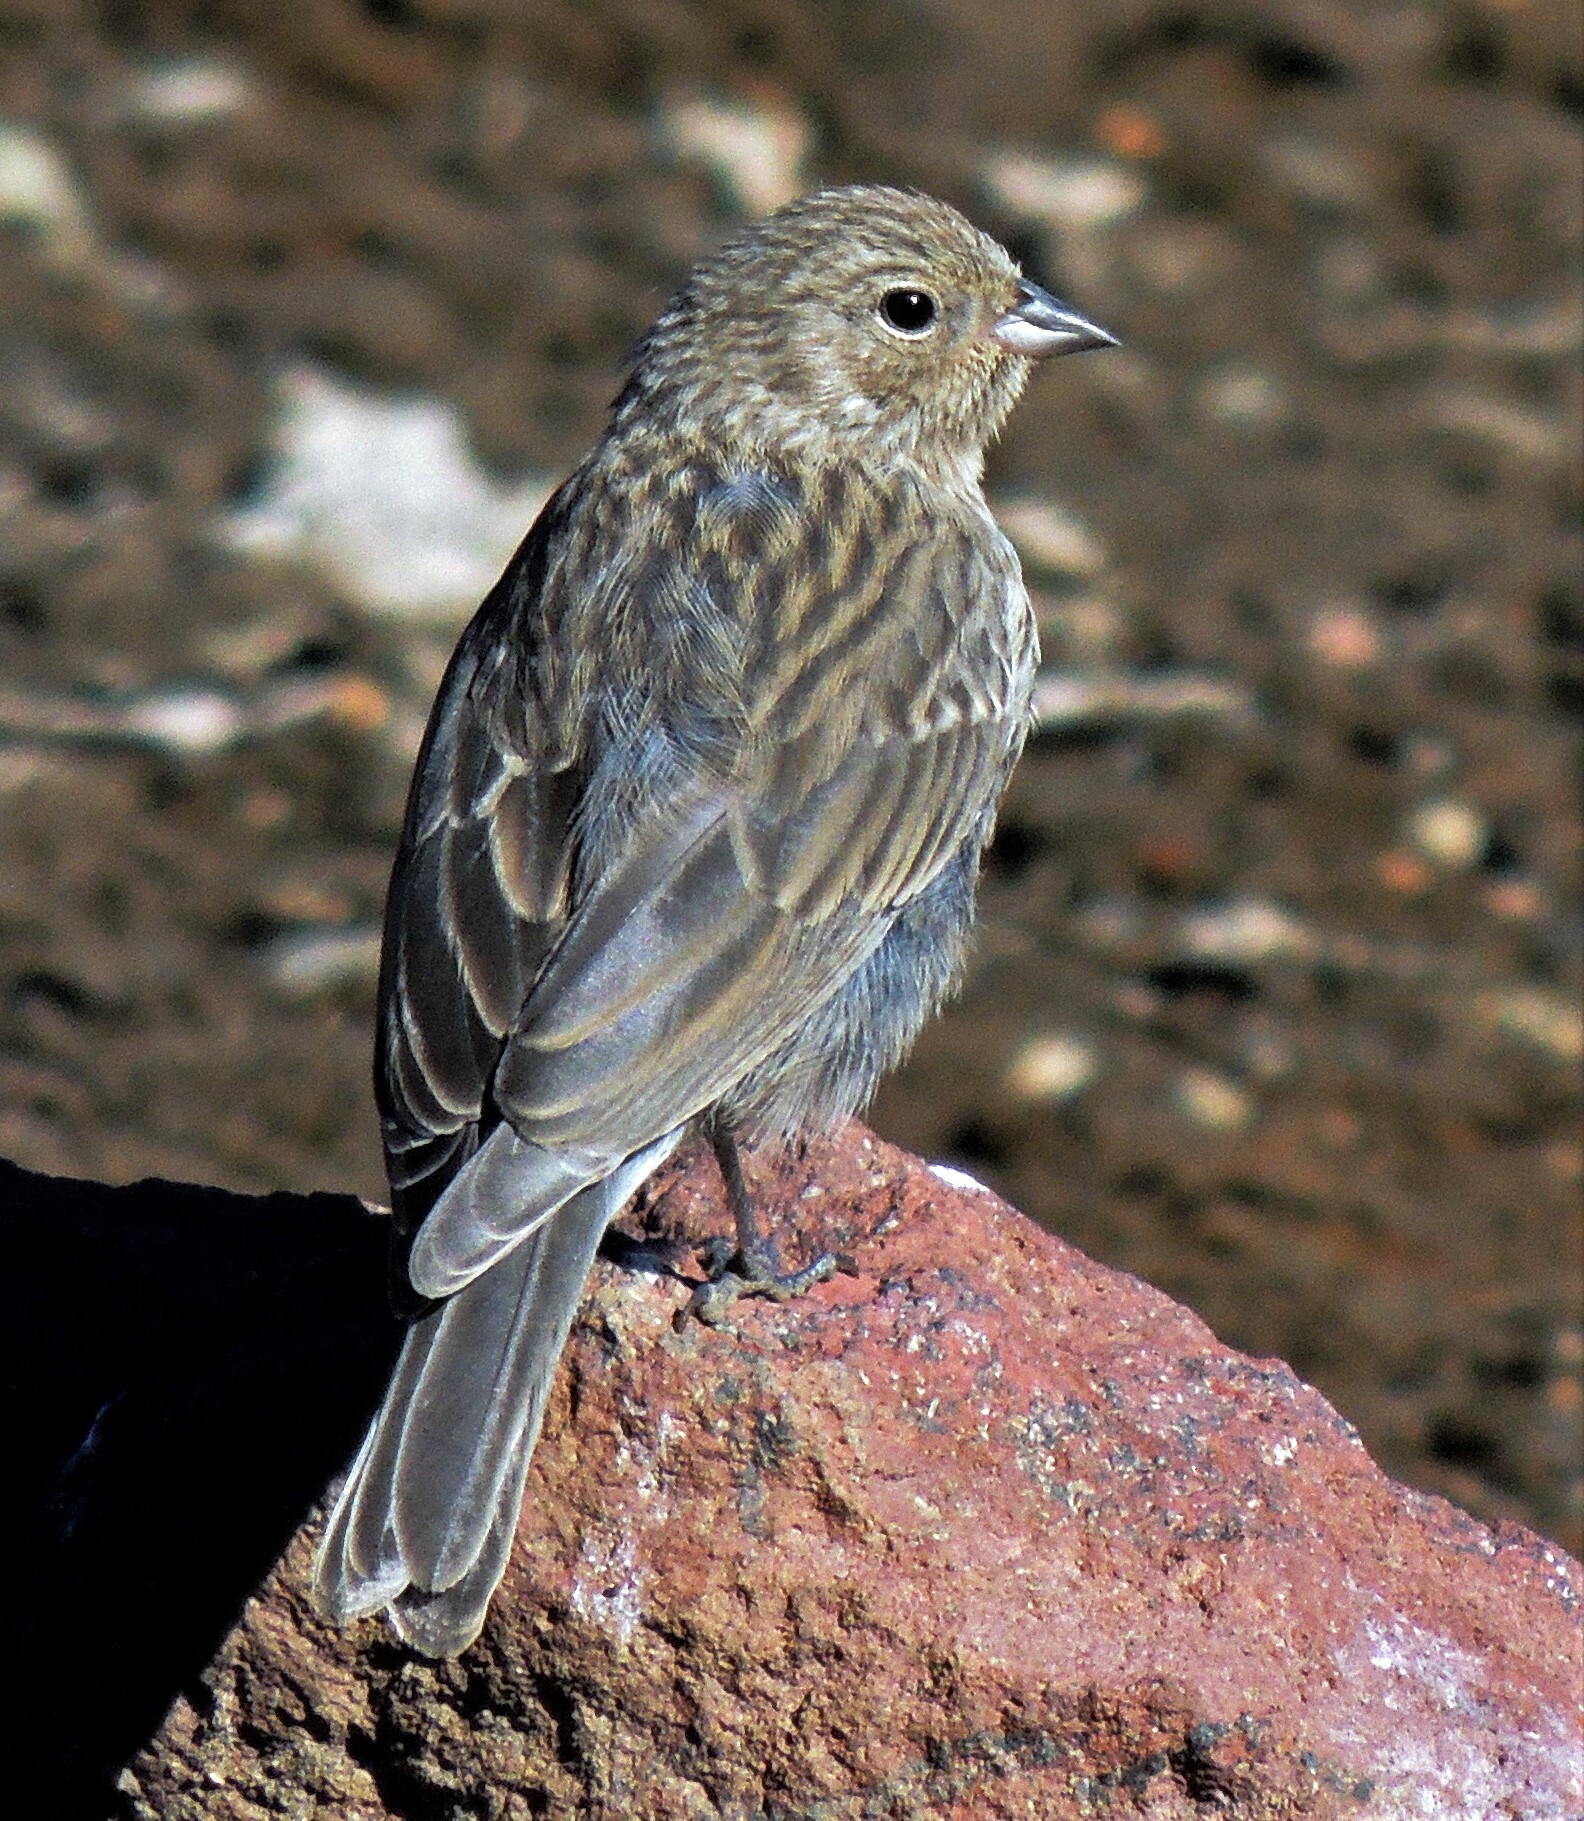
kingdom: Animalia
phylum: Chordata
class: Aves
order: Passeriformes
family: Thraupidae
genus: Geospizopsis
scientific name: Geospizopsis unicolor
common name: Plumbeous sierra-finch
